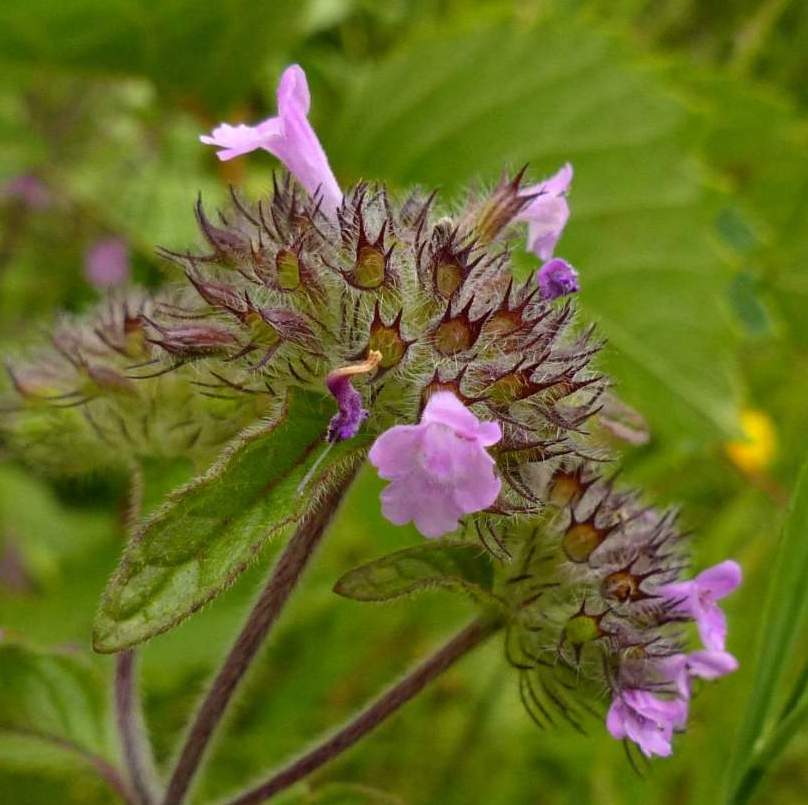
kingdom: Plantae
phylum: Tracheophyta
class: Magnoliopsida
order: Lamiales
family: Lamiaceae
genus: Clinopodium
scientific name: Clinopodium vulgare
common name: Wild basil
